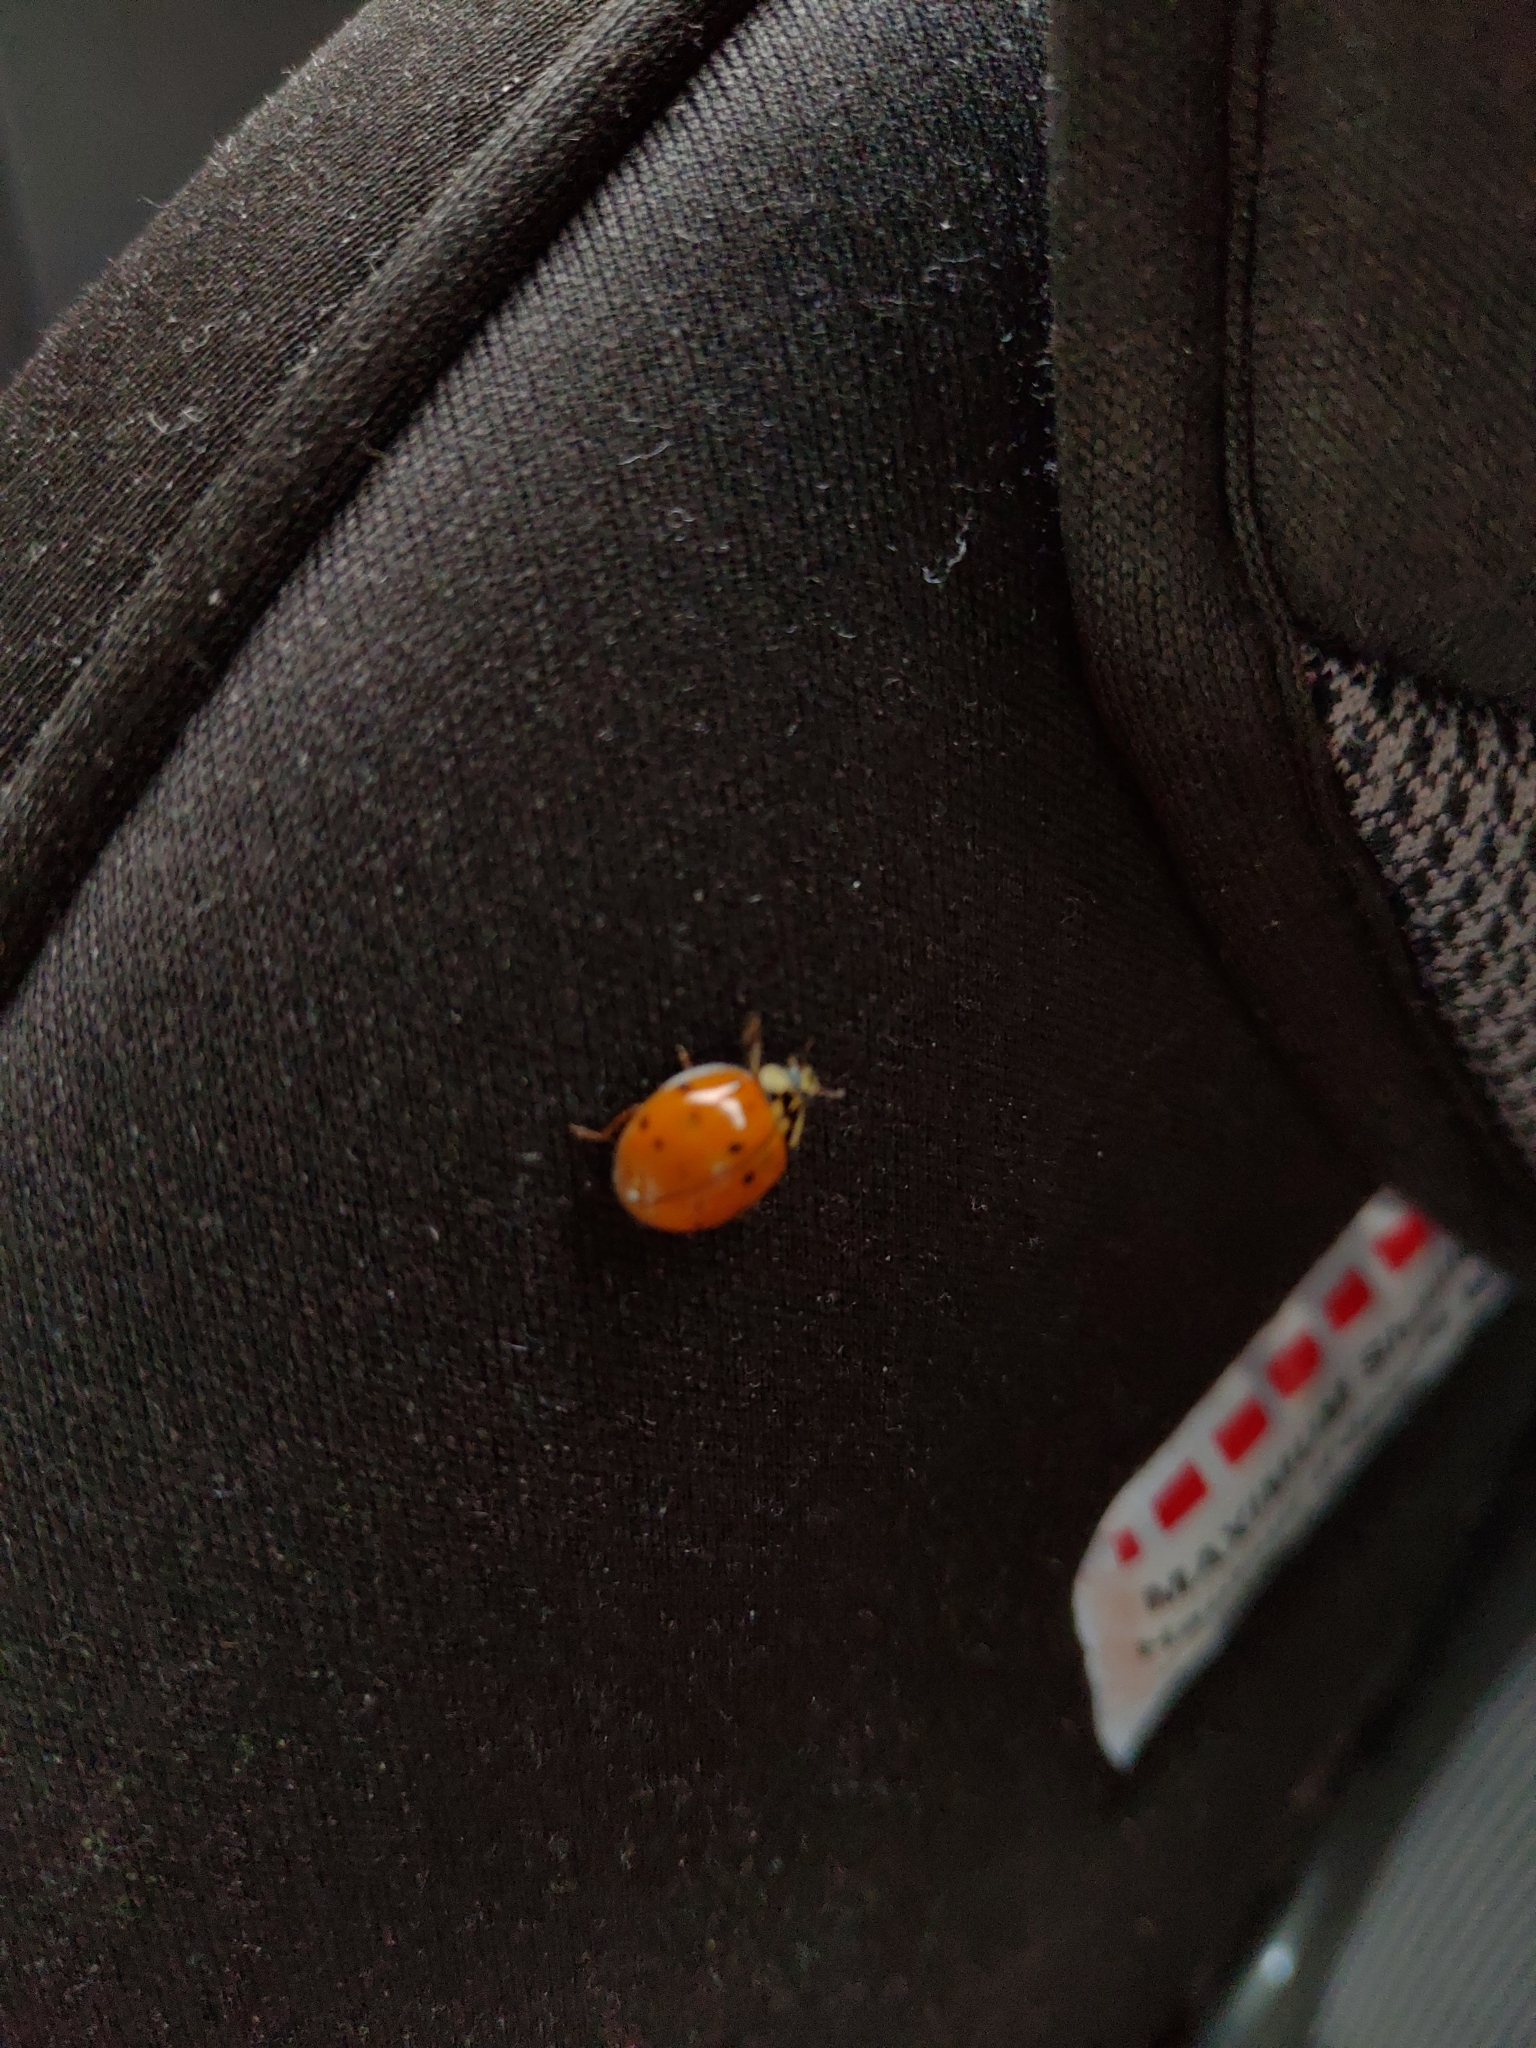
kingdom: Animalia
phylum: Arthropoda
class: Insecta
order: Coleoptera
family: Coccinellidae
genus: Harmonia
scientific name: Harmonia axyridis
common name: Harlequin ladybird
